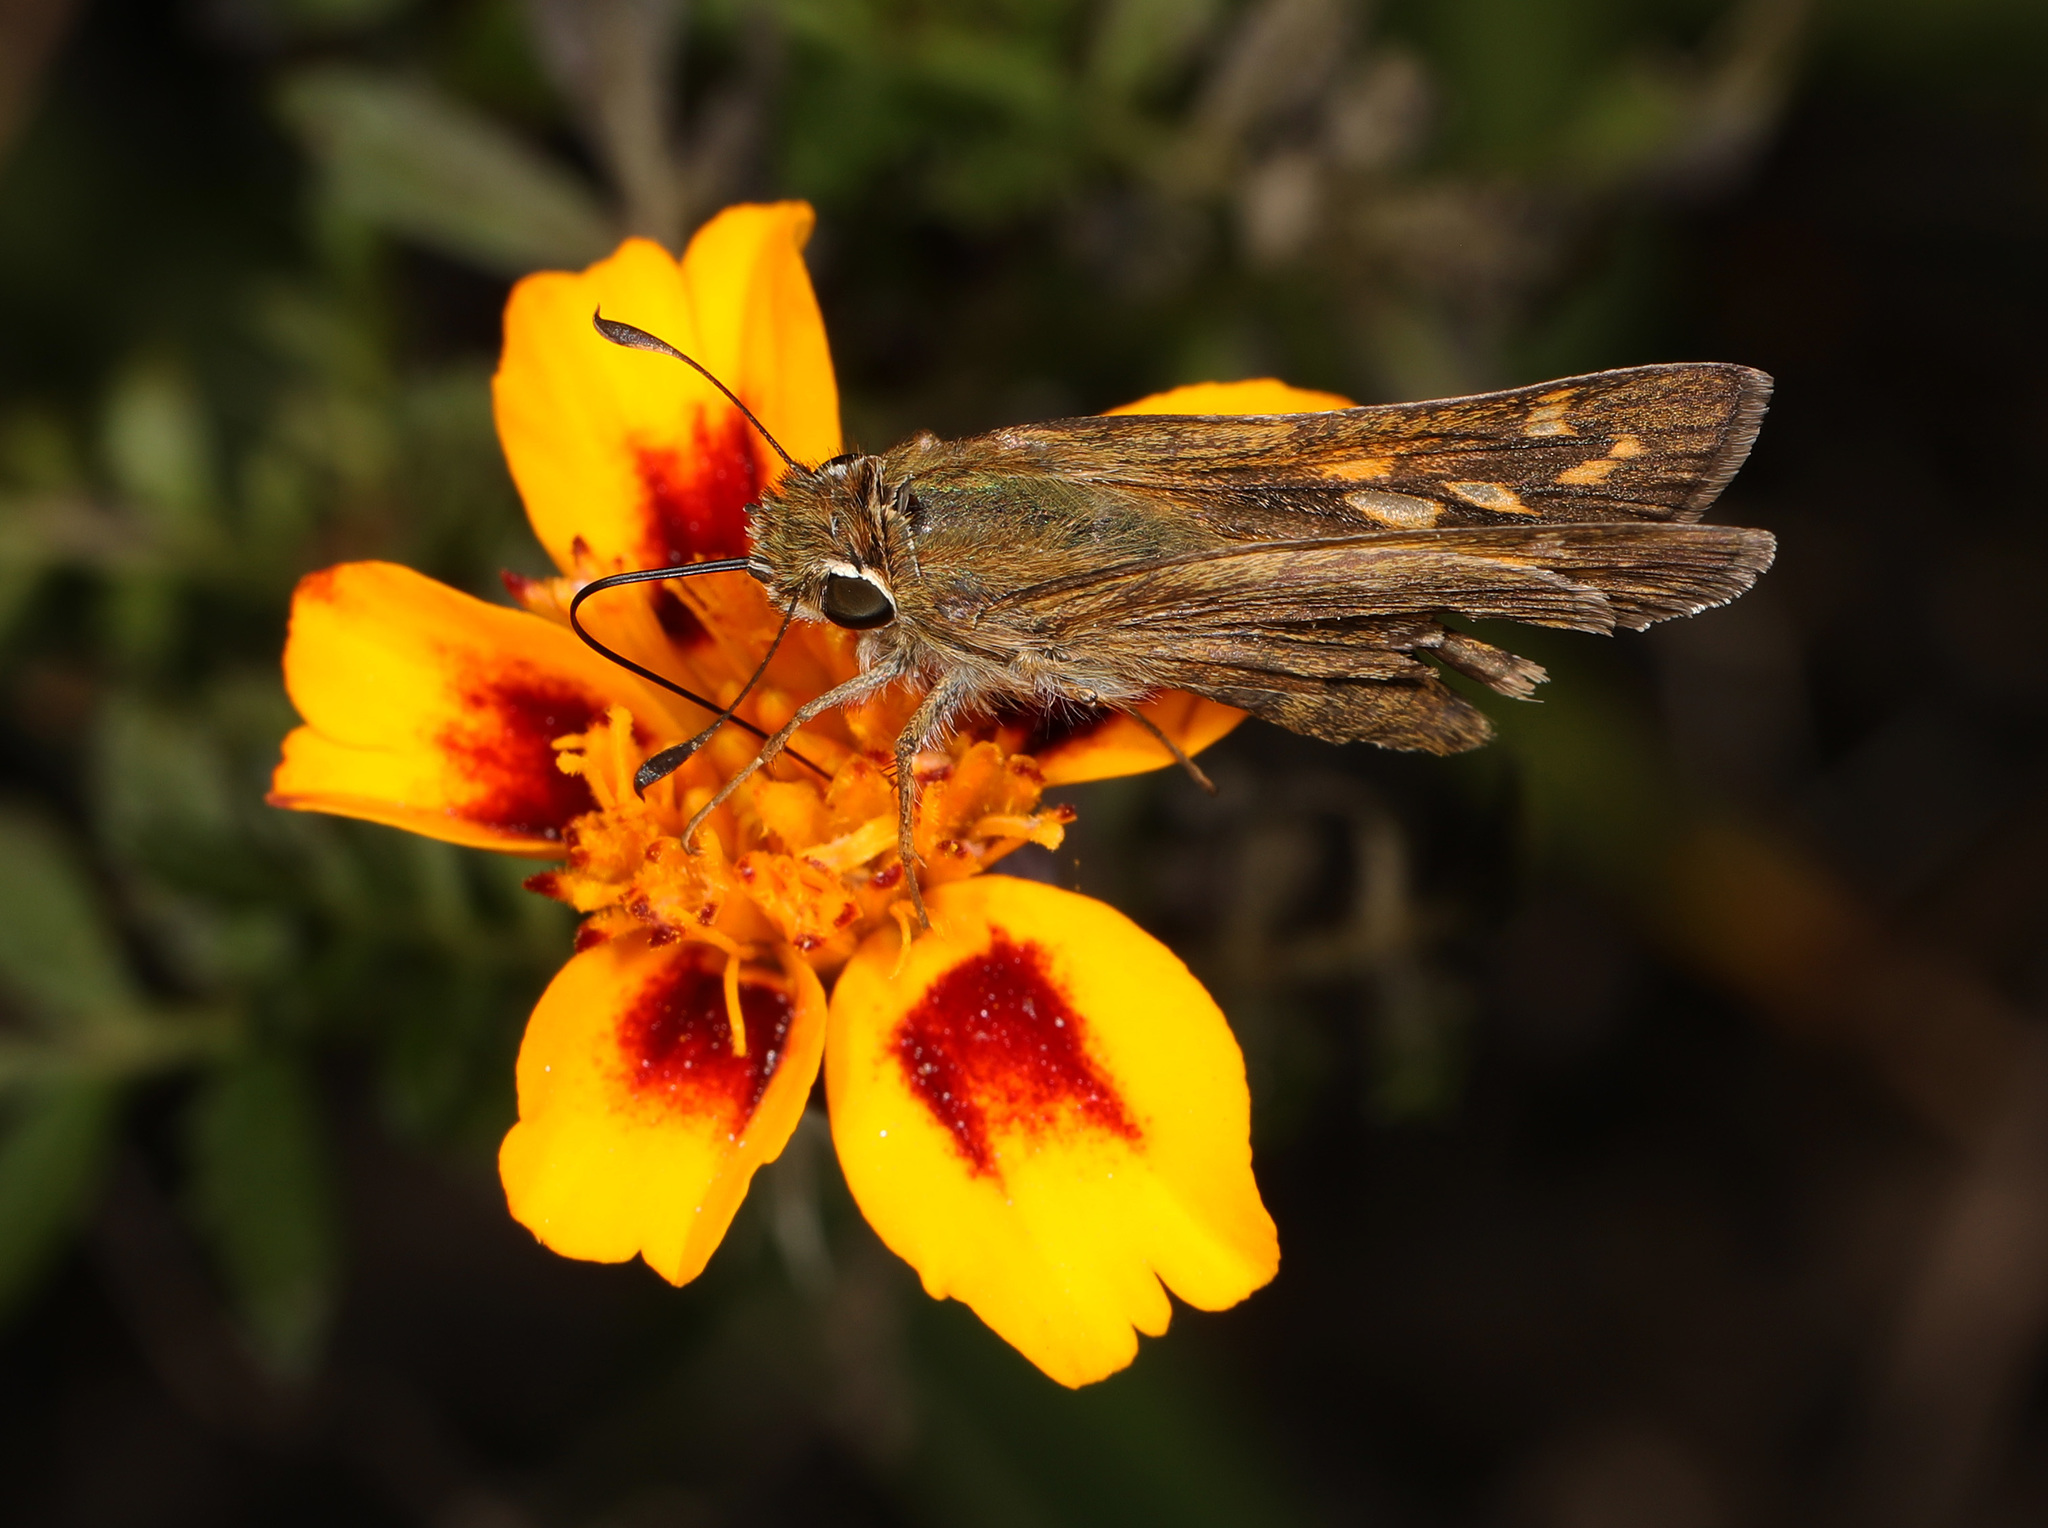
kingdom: Animalia
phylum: Arthropoda
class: Insecta
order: Lepidoptera
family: Hesperiidae
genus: Atalopedes
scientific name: Atalopedes
